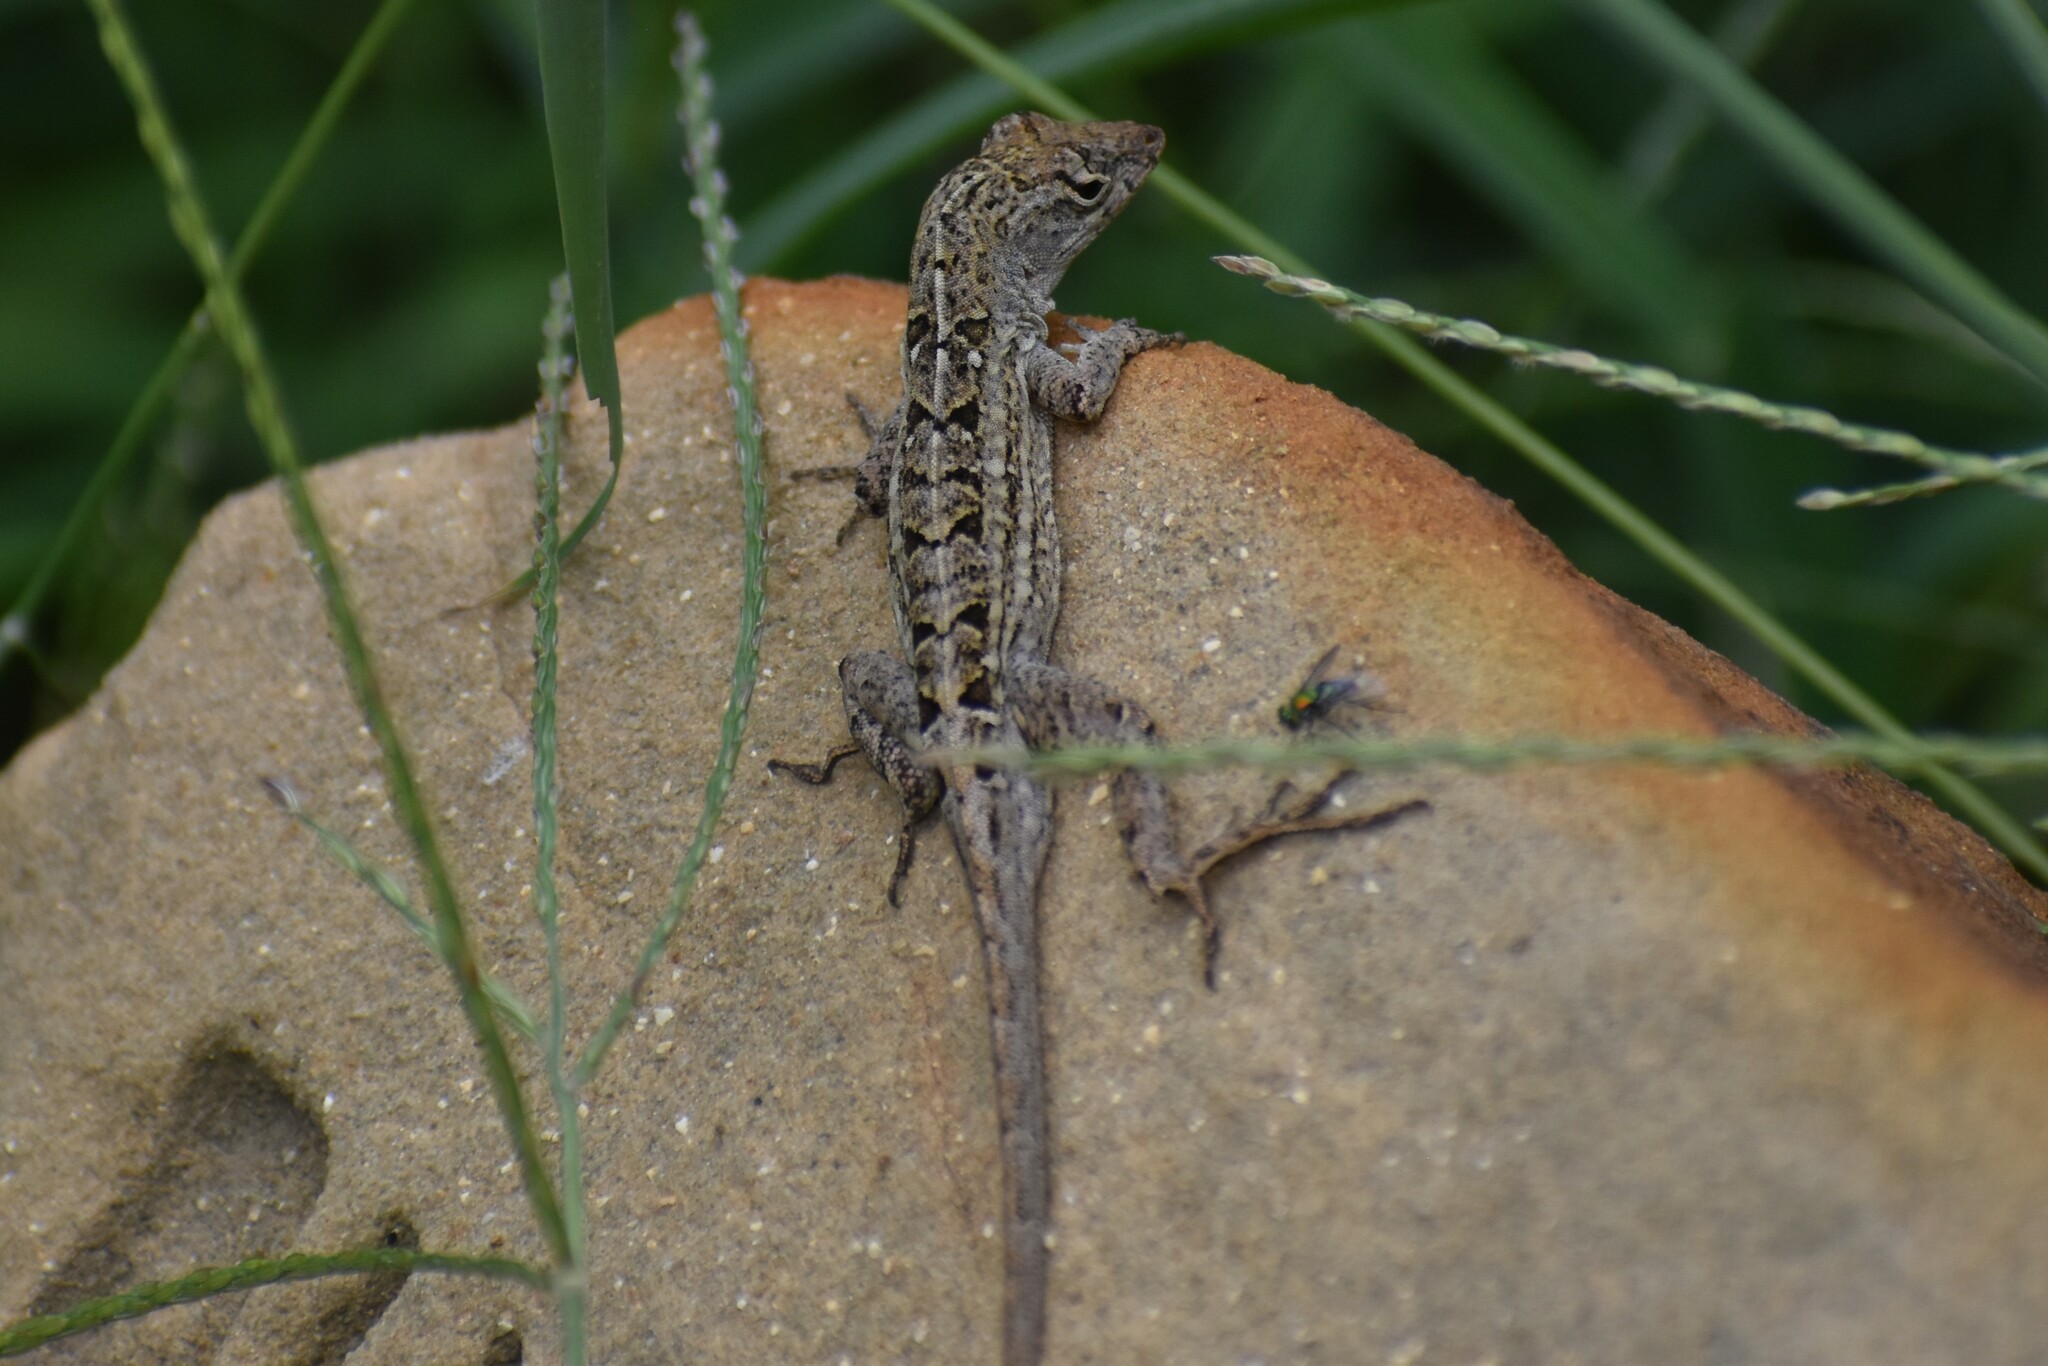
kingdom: Animalia
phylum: Chordata
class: Squamata
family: Dactyloidae
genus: Anolis
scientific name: Anolis sagrei
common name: Brown anole
